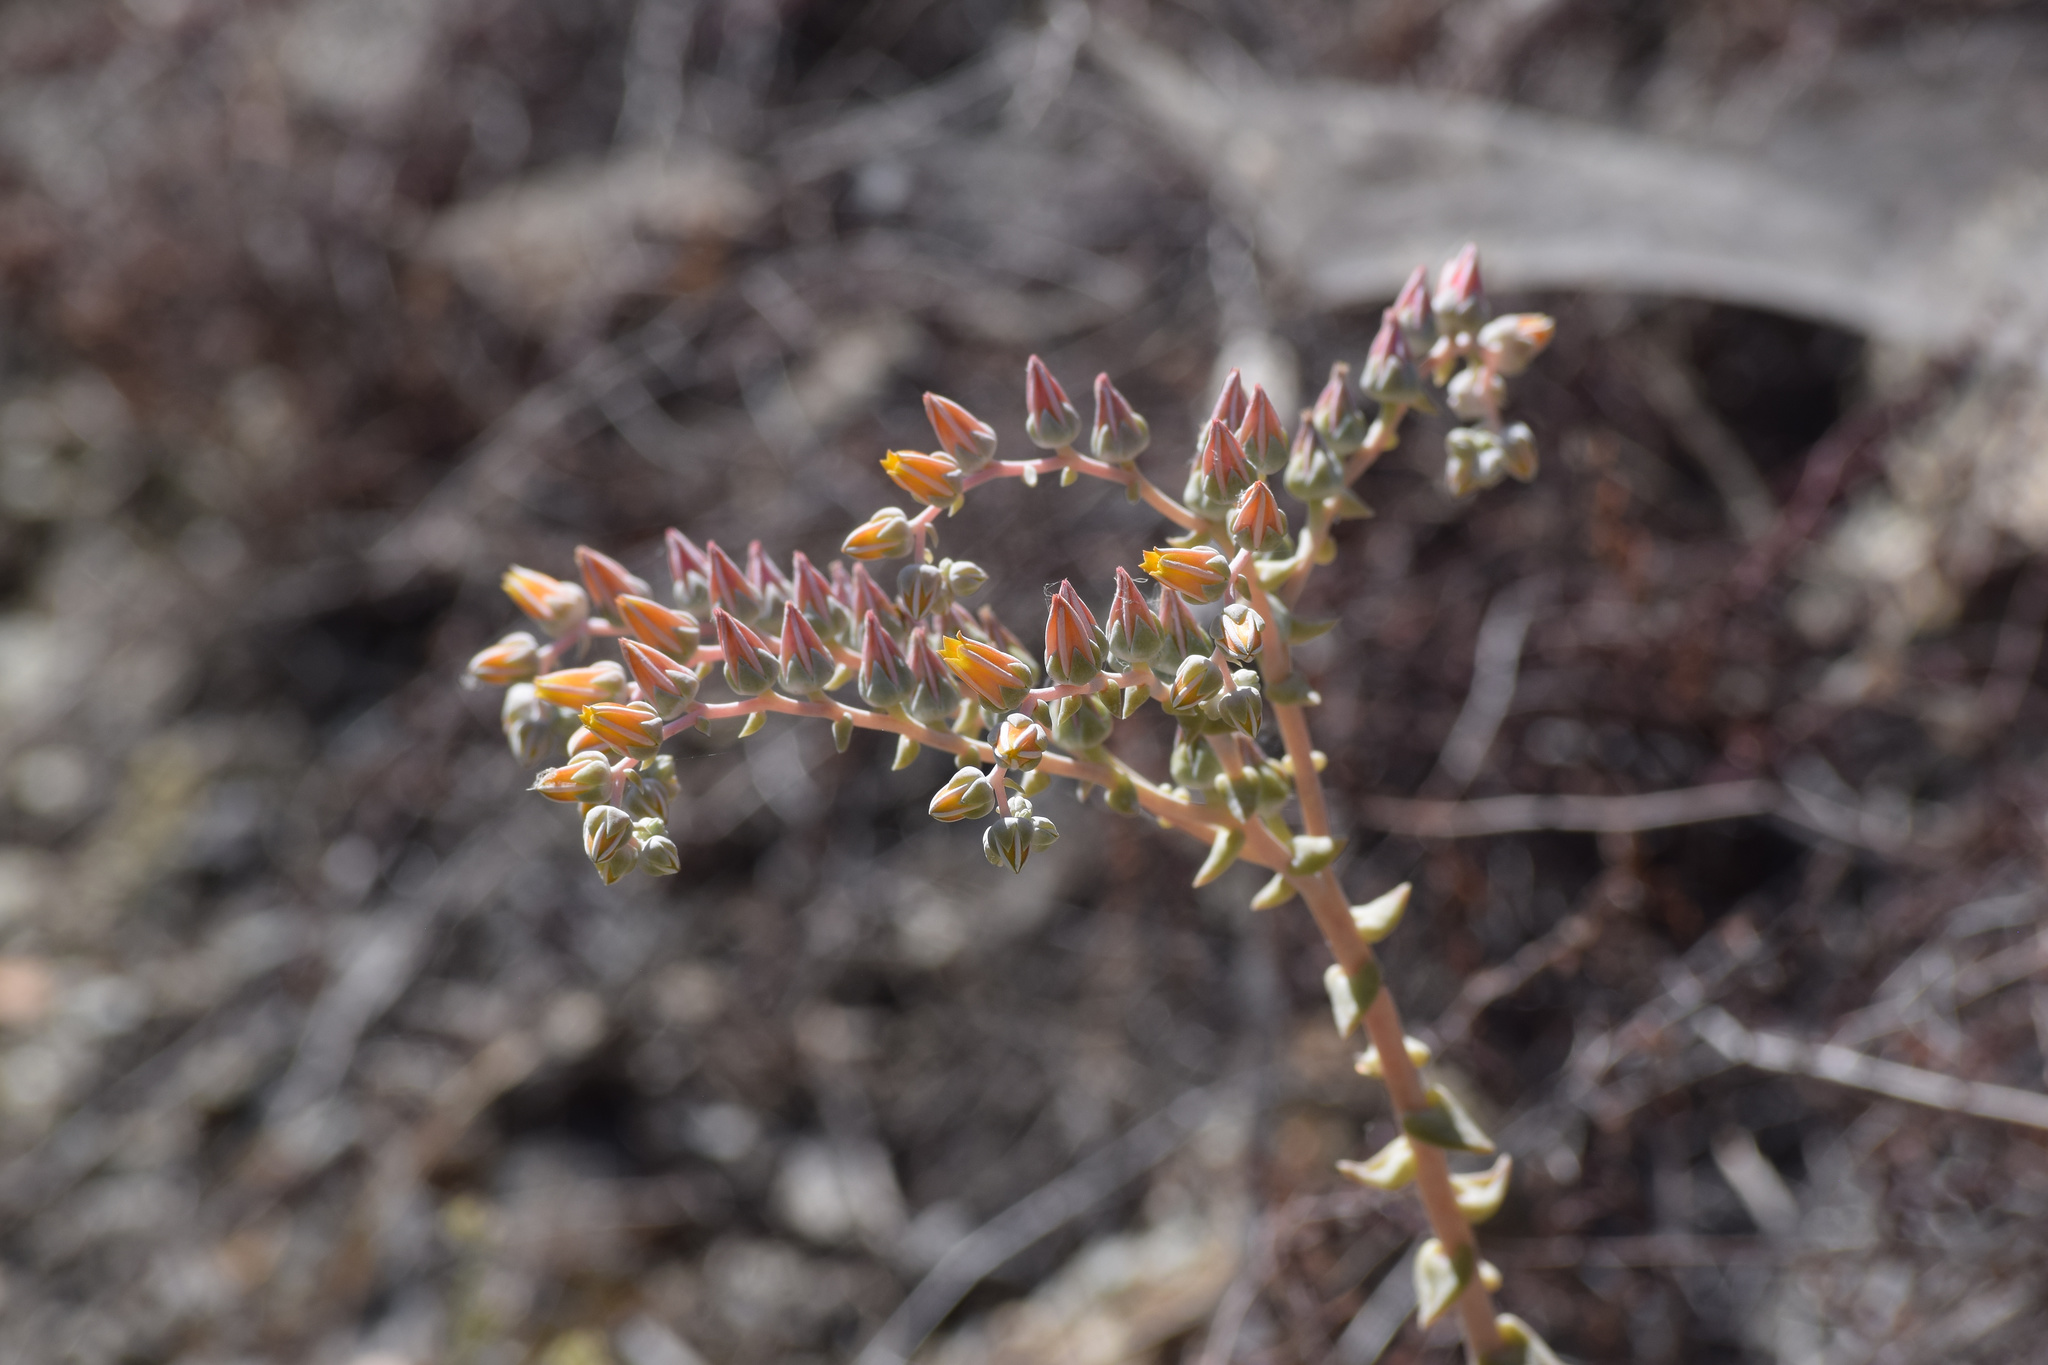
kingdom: Plantae
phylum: Tracheophyta
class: Magnoliopsida
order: Saxifragales
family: Crassulaceae
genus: Dudleya
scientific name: Dudleya lanceolata
